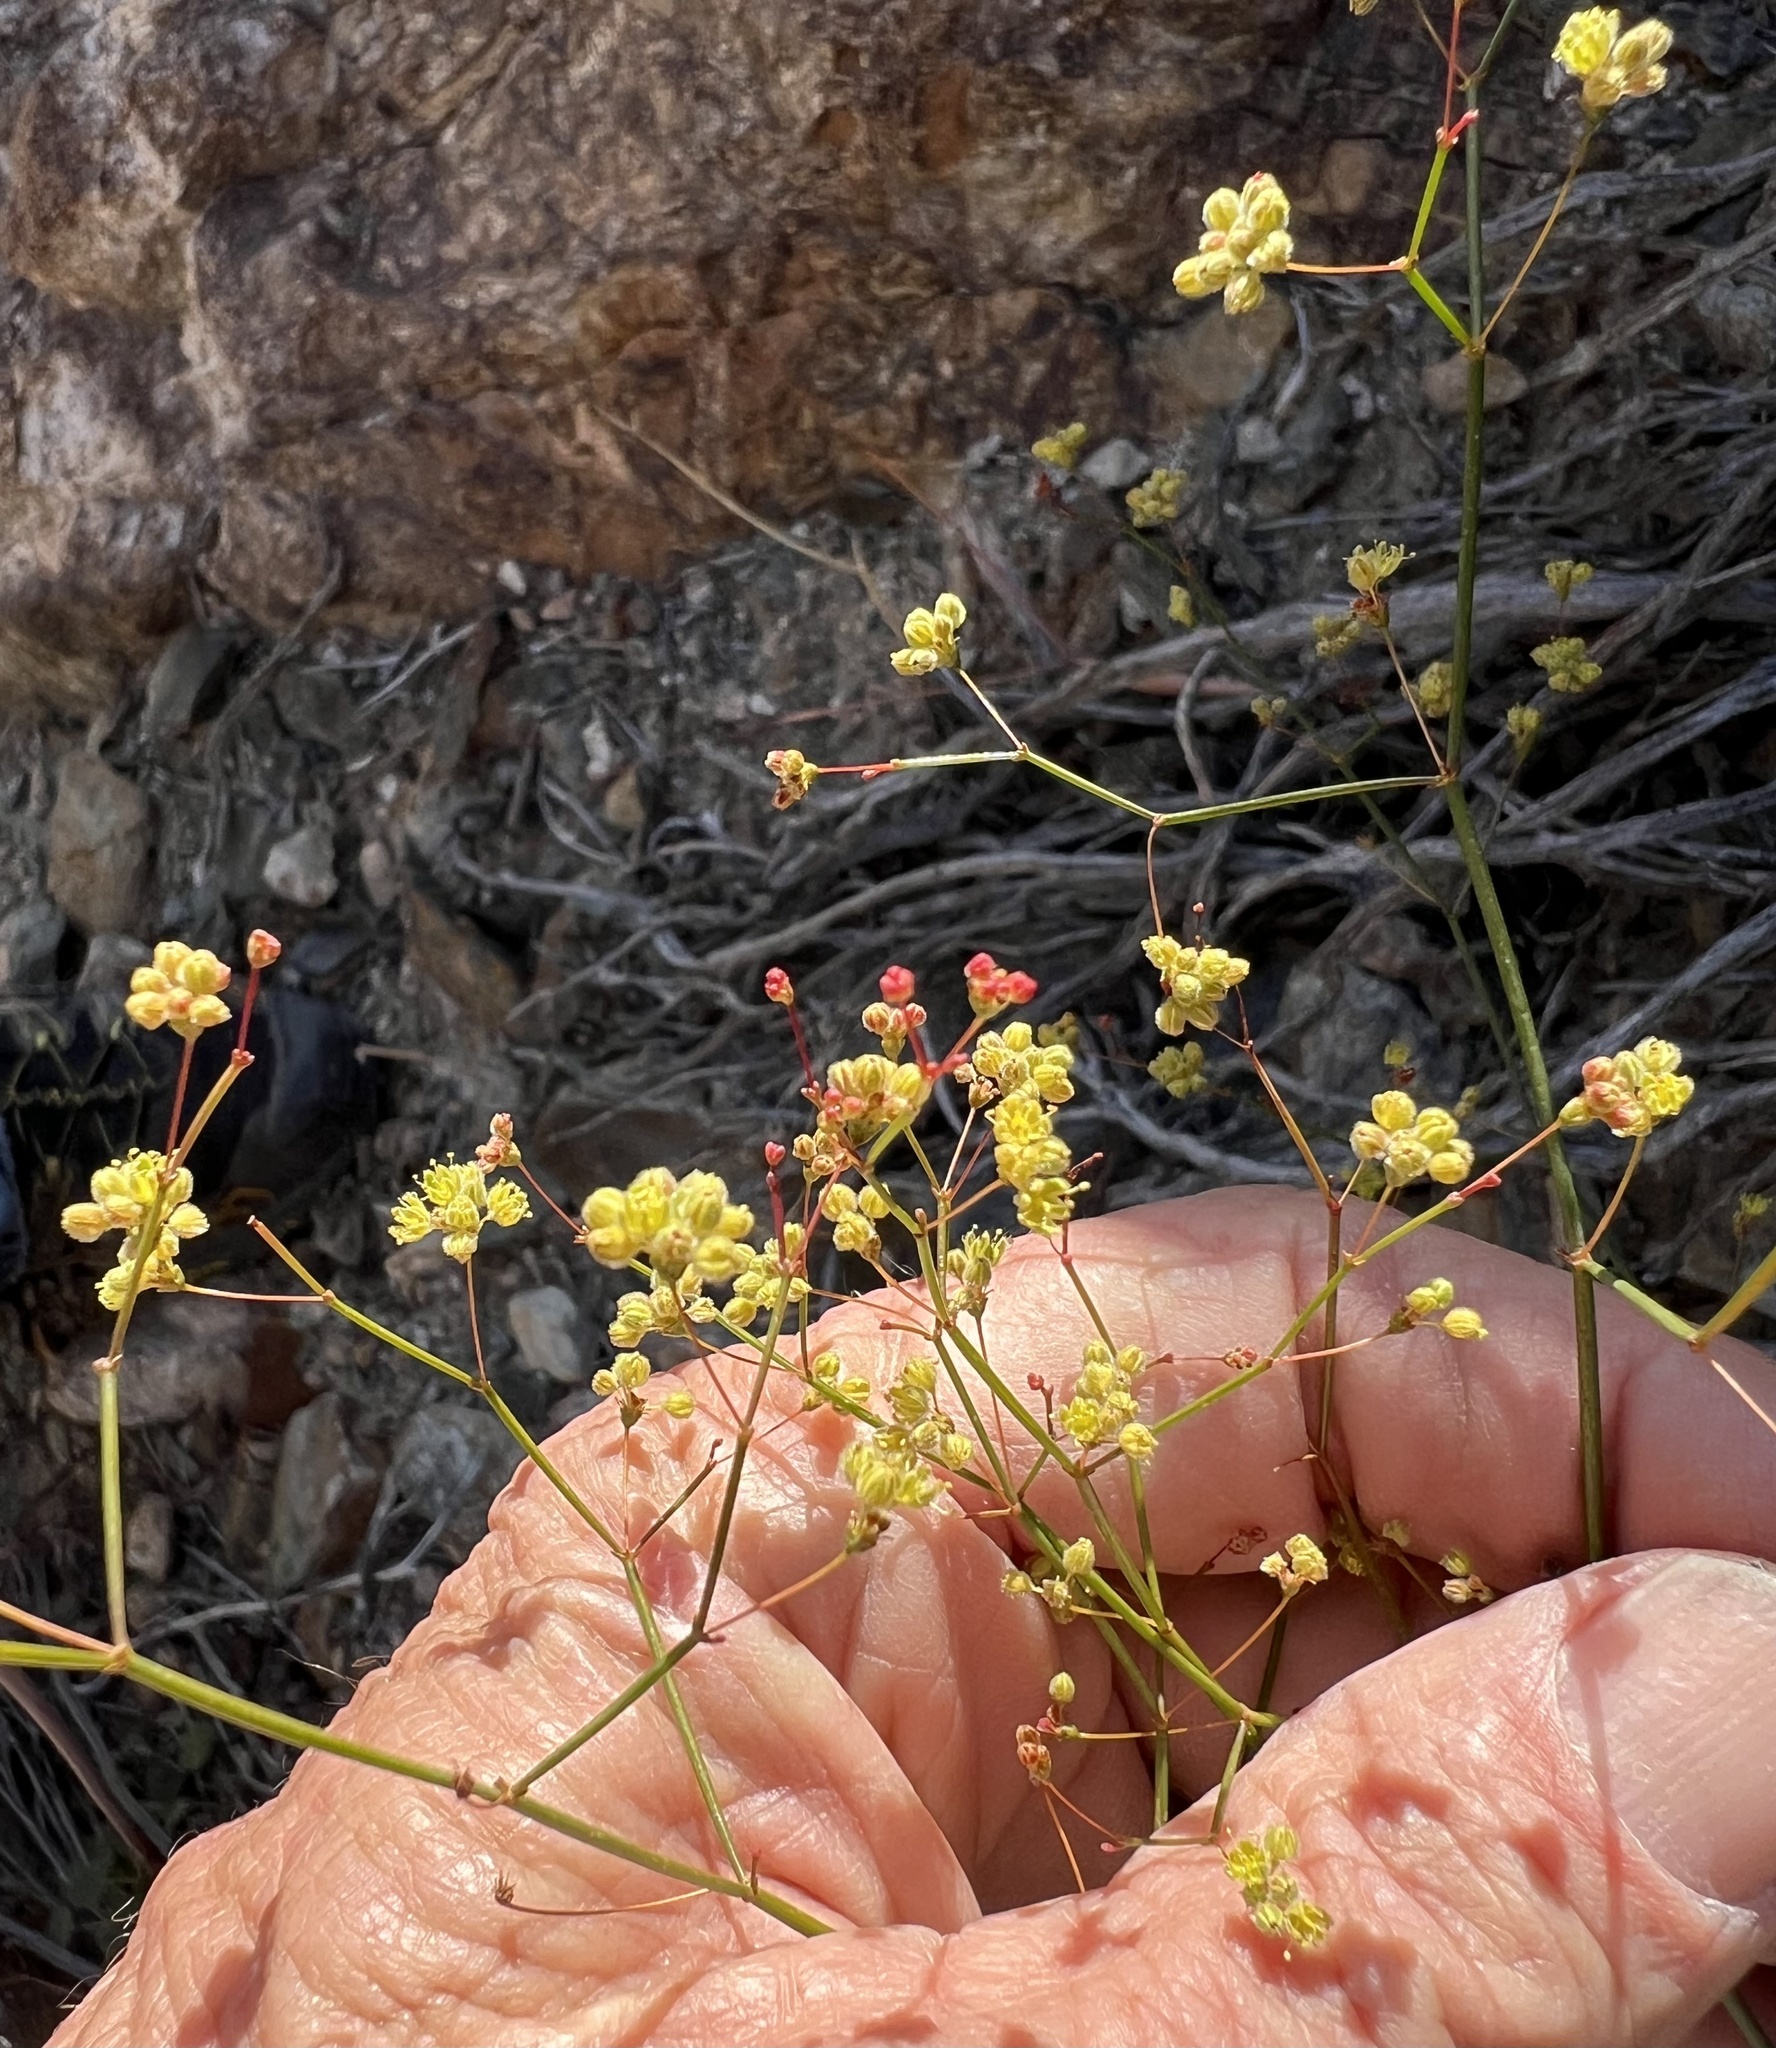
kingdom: Plantae
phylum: Tracheophyta
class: Magnoliopsida
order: Caryophyllales
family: Polygonaceae
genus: Eriogonum
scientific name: Eriogonum inflatum
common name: Desert trumpet
